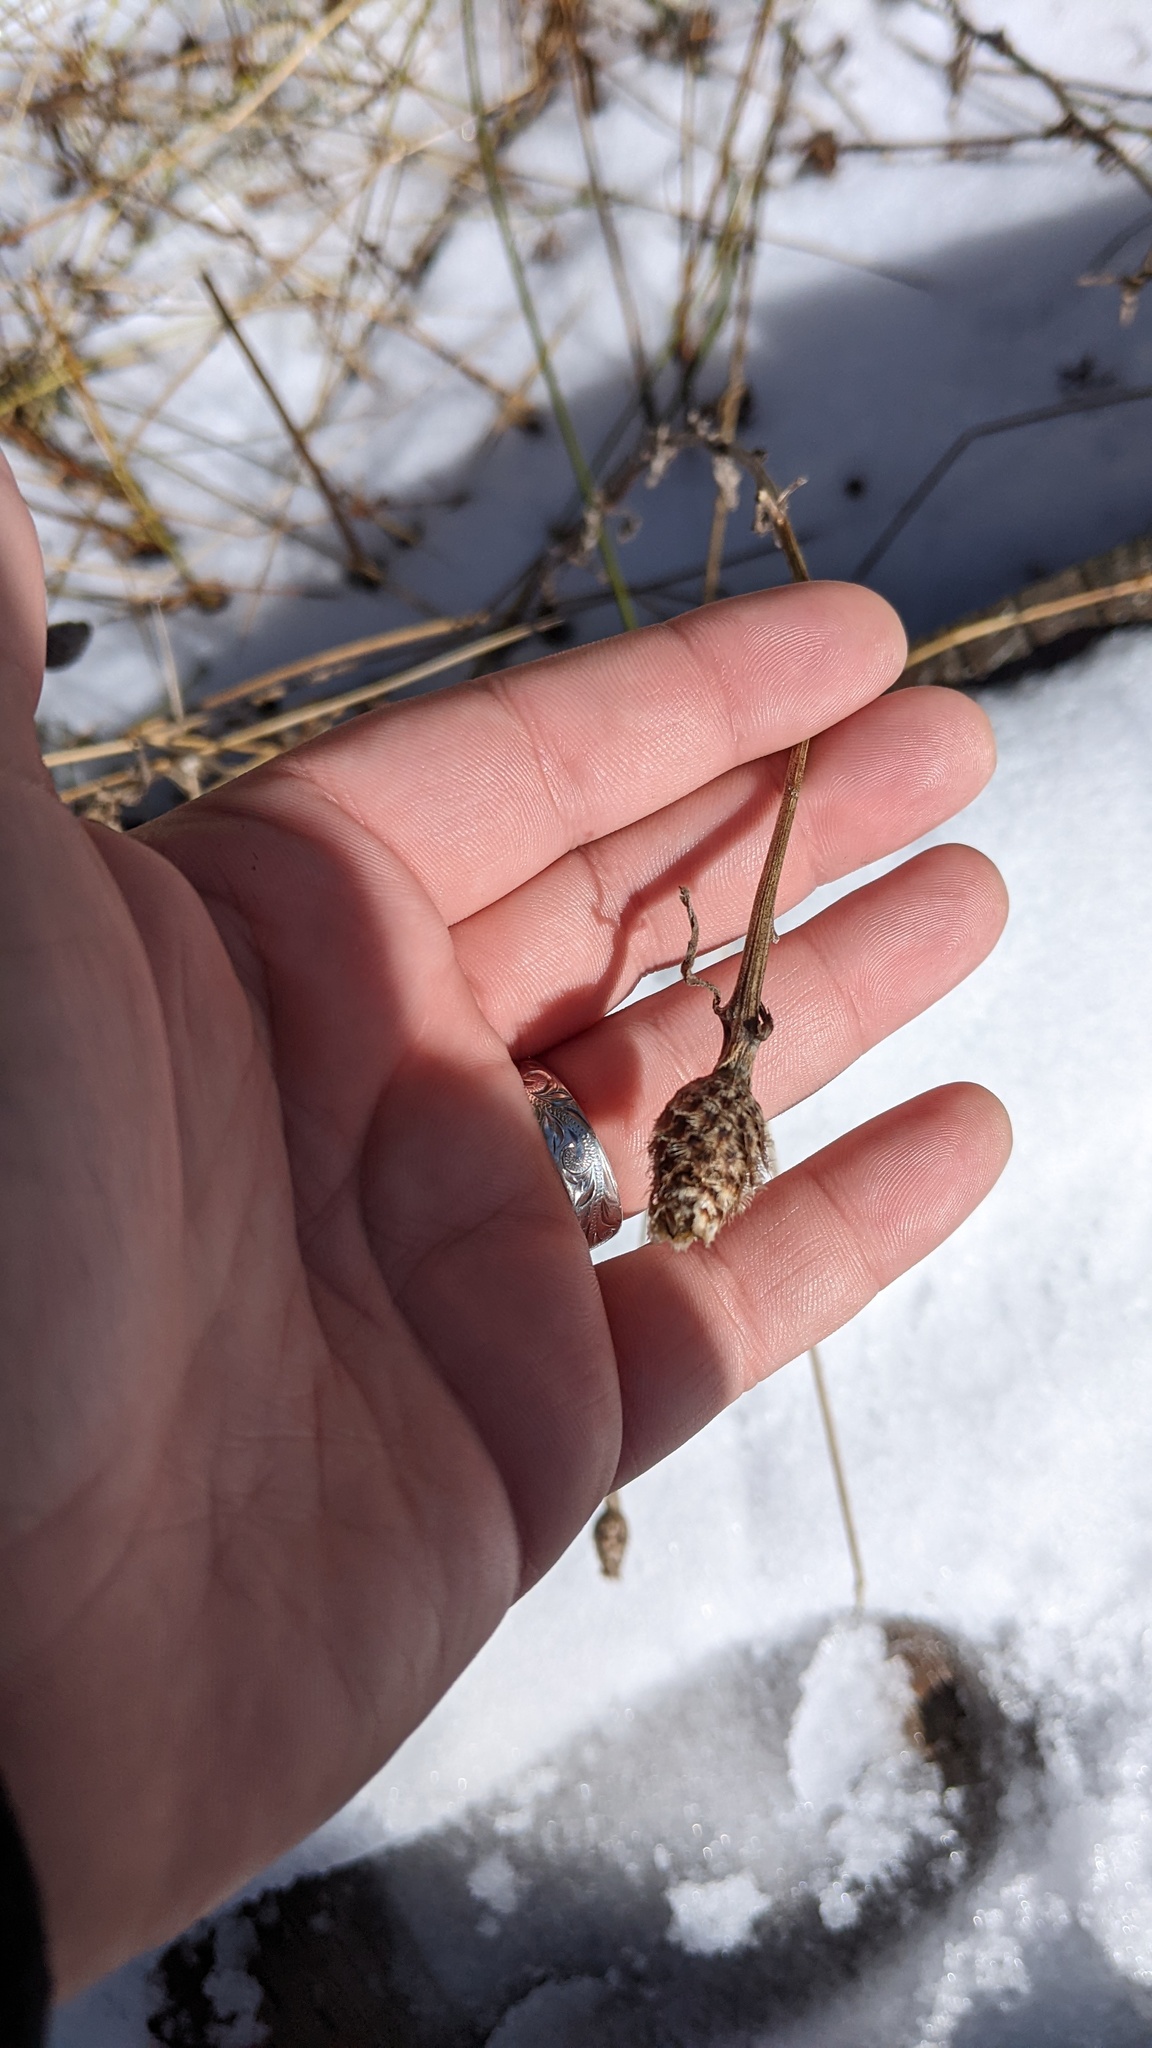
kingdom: Plantae
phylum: Tracheophyta
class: Magnoliopsida
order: Asterales
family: Asteraceae
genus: Centaurea
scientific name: Centaurea nigra
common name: Lesser knapweed
